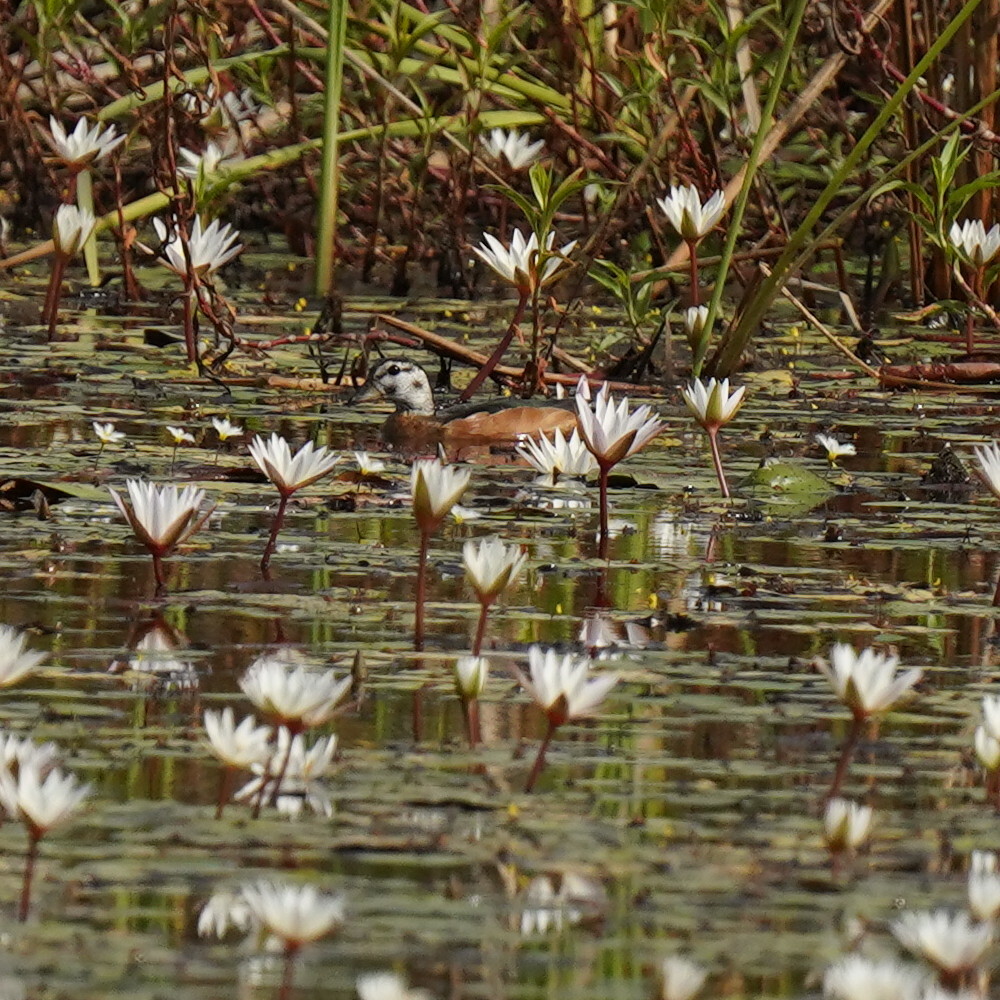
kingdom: Animalia
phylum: Chordata
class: Aves
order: Anseriformes
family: Anatidae
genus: Nettapus
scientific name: Nettapus auritus
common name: African pygmy-goose
